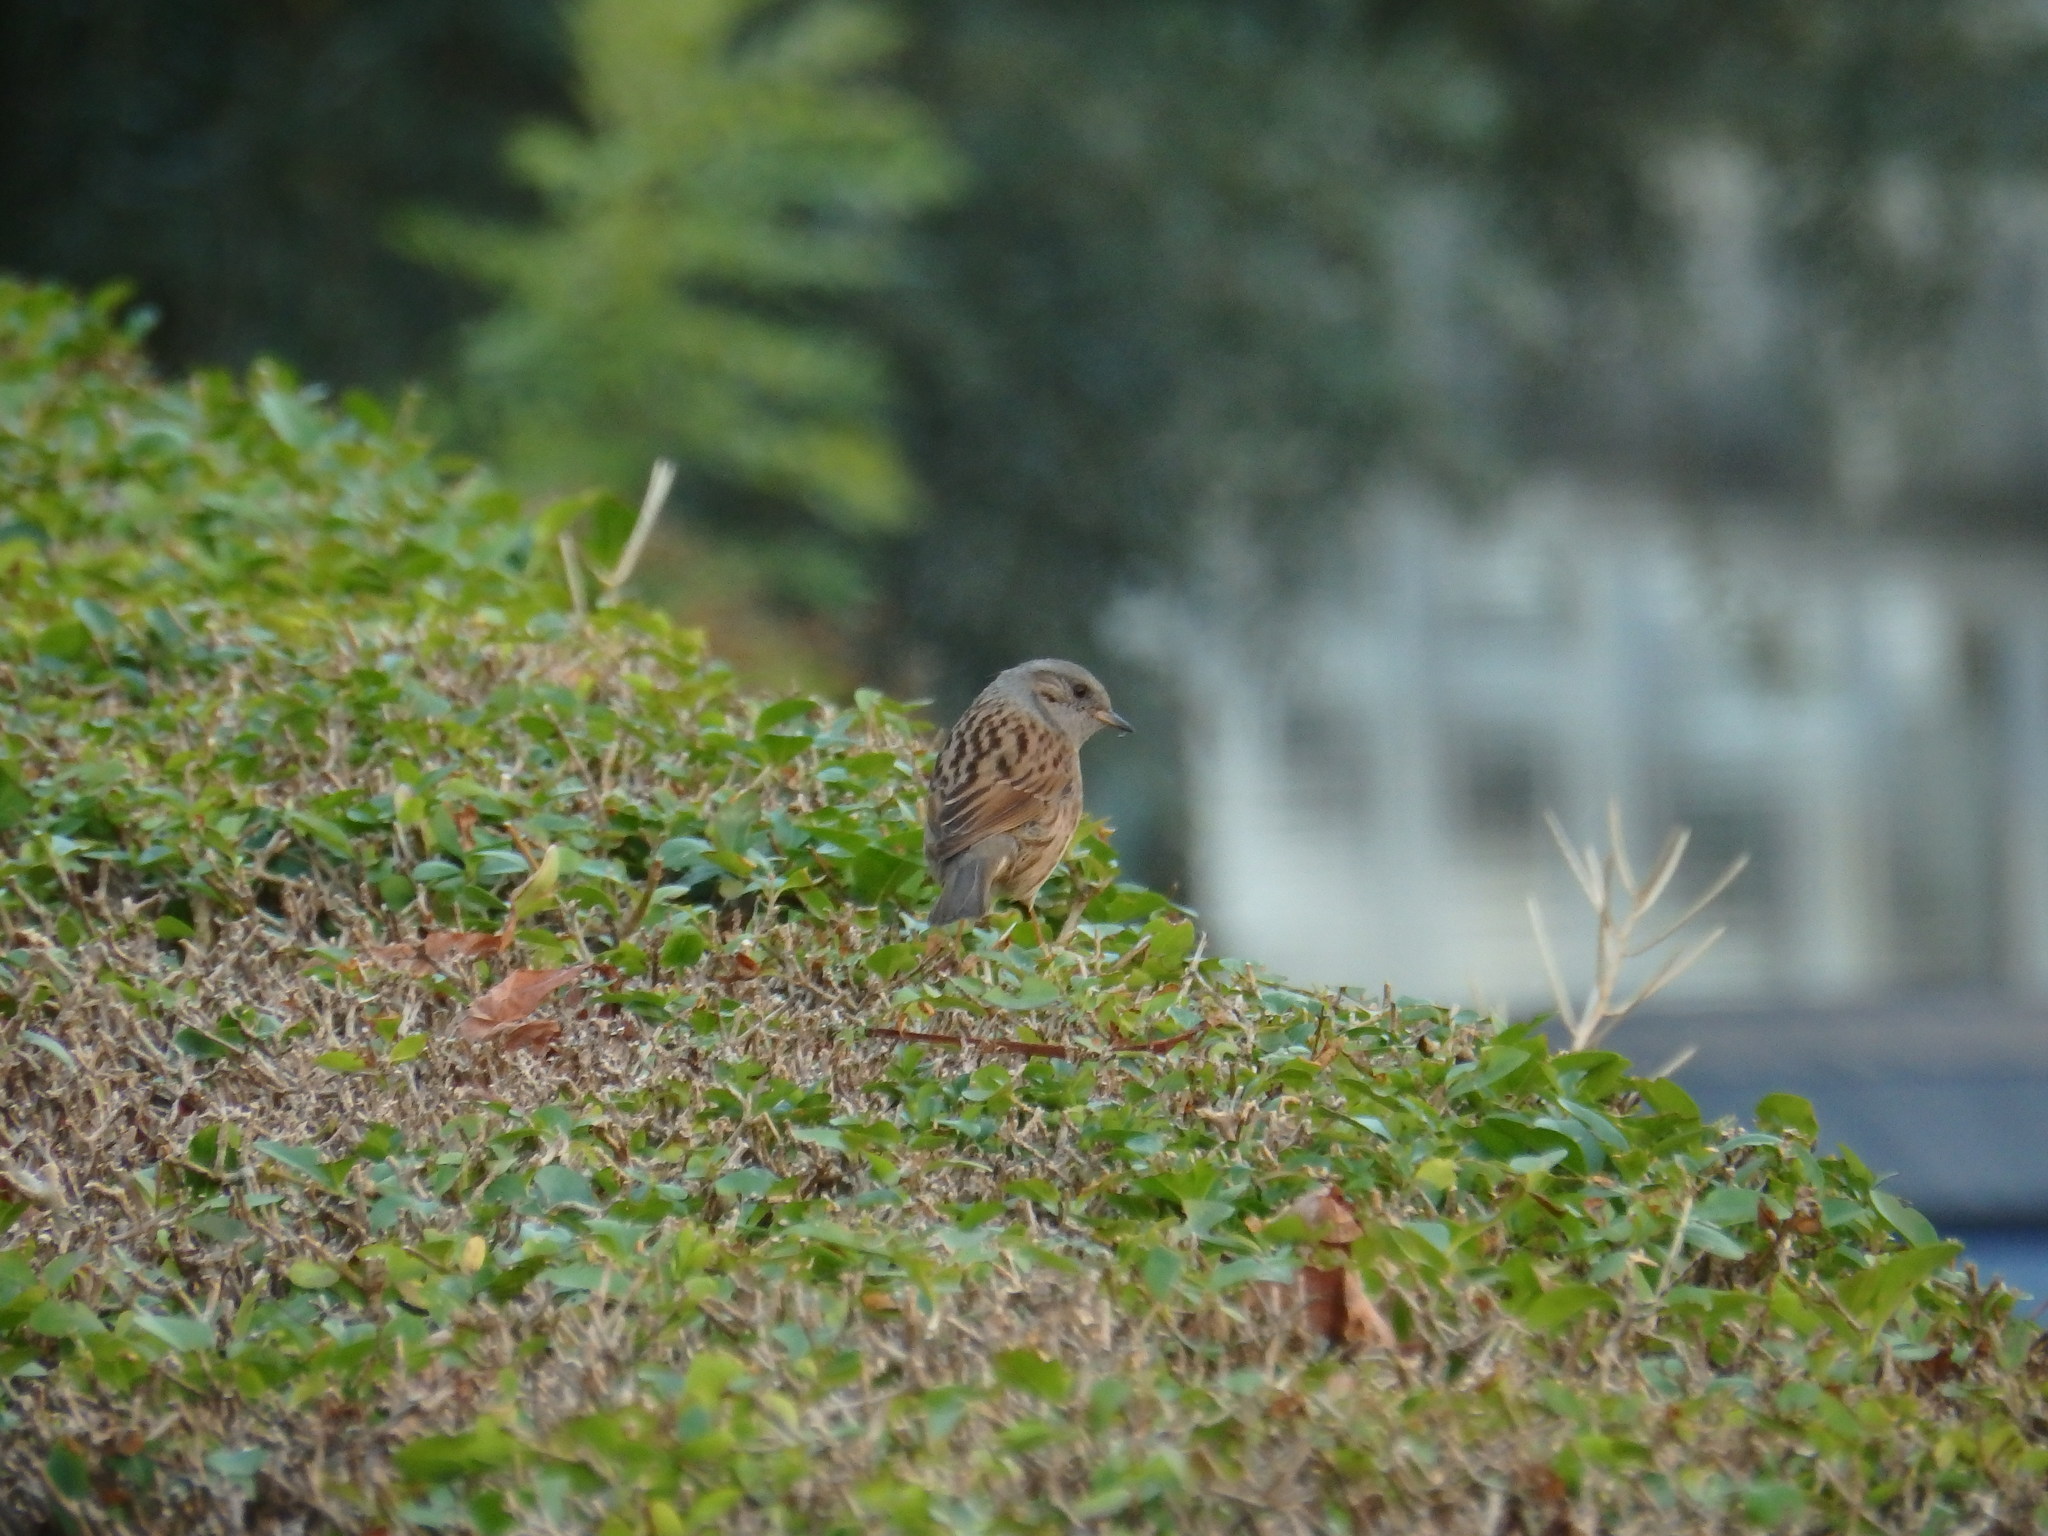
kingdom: Animalia
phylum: Chordata
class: Aves
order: Passeriformes
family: Prunellidae
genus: Prunella
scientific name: Prunella modularis
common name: Dunnock
